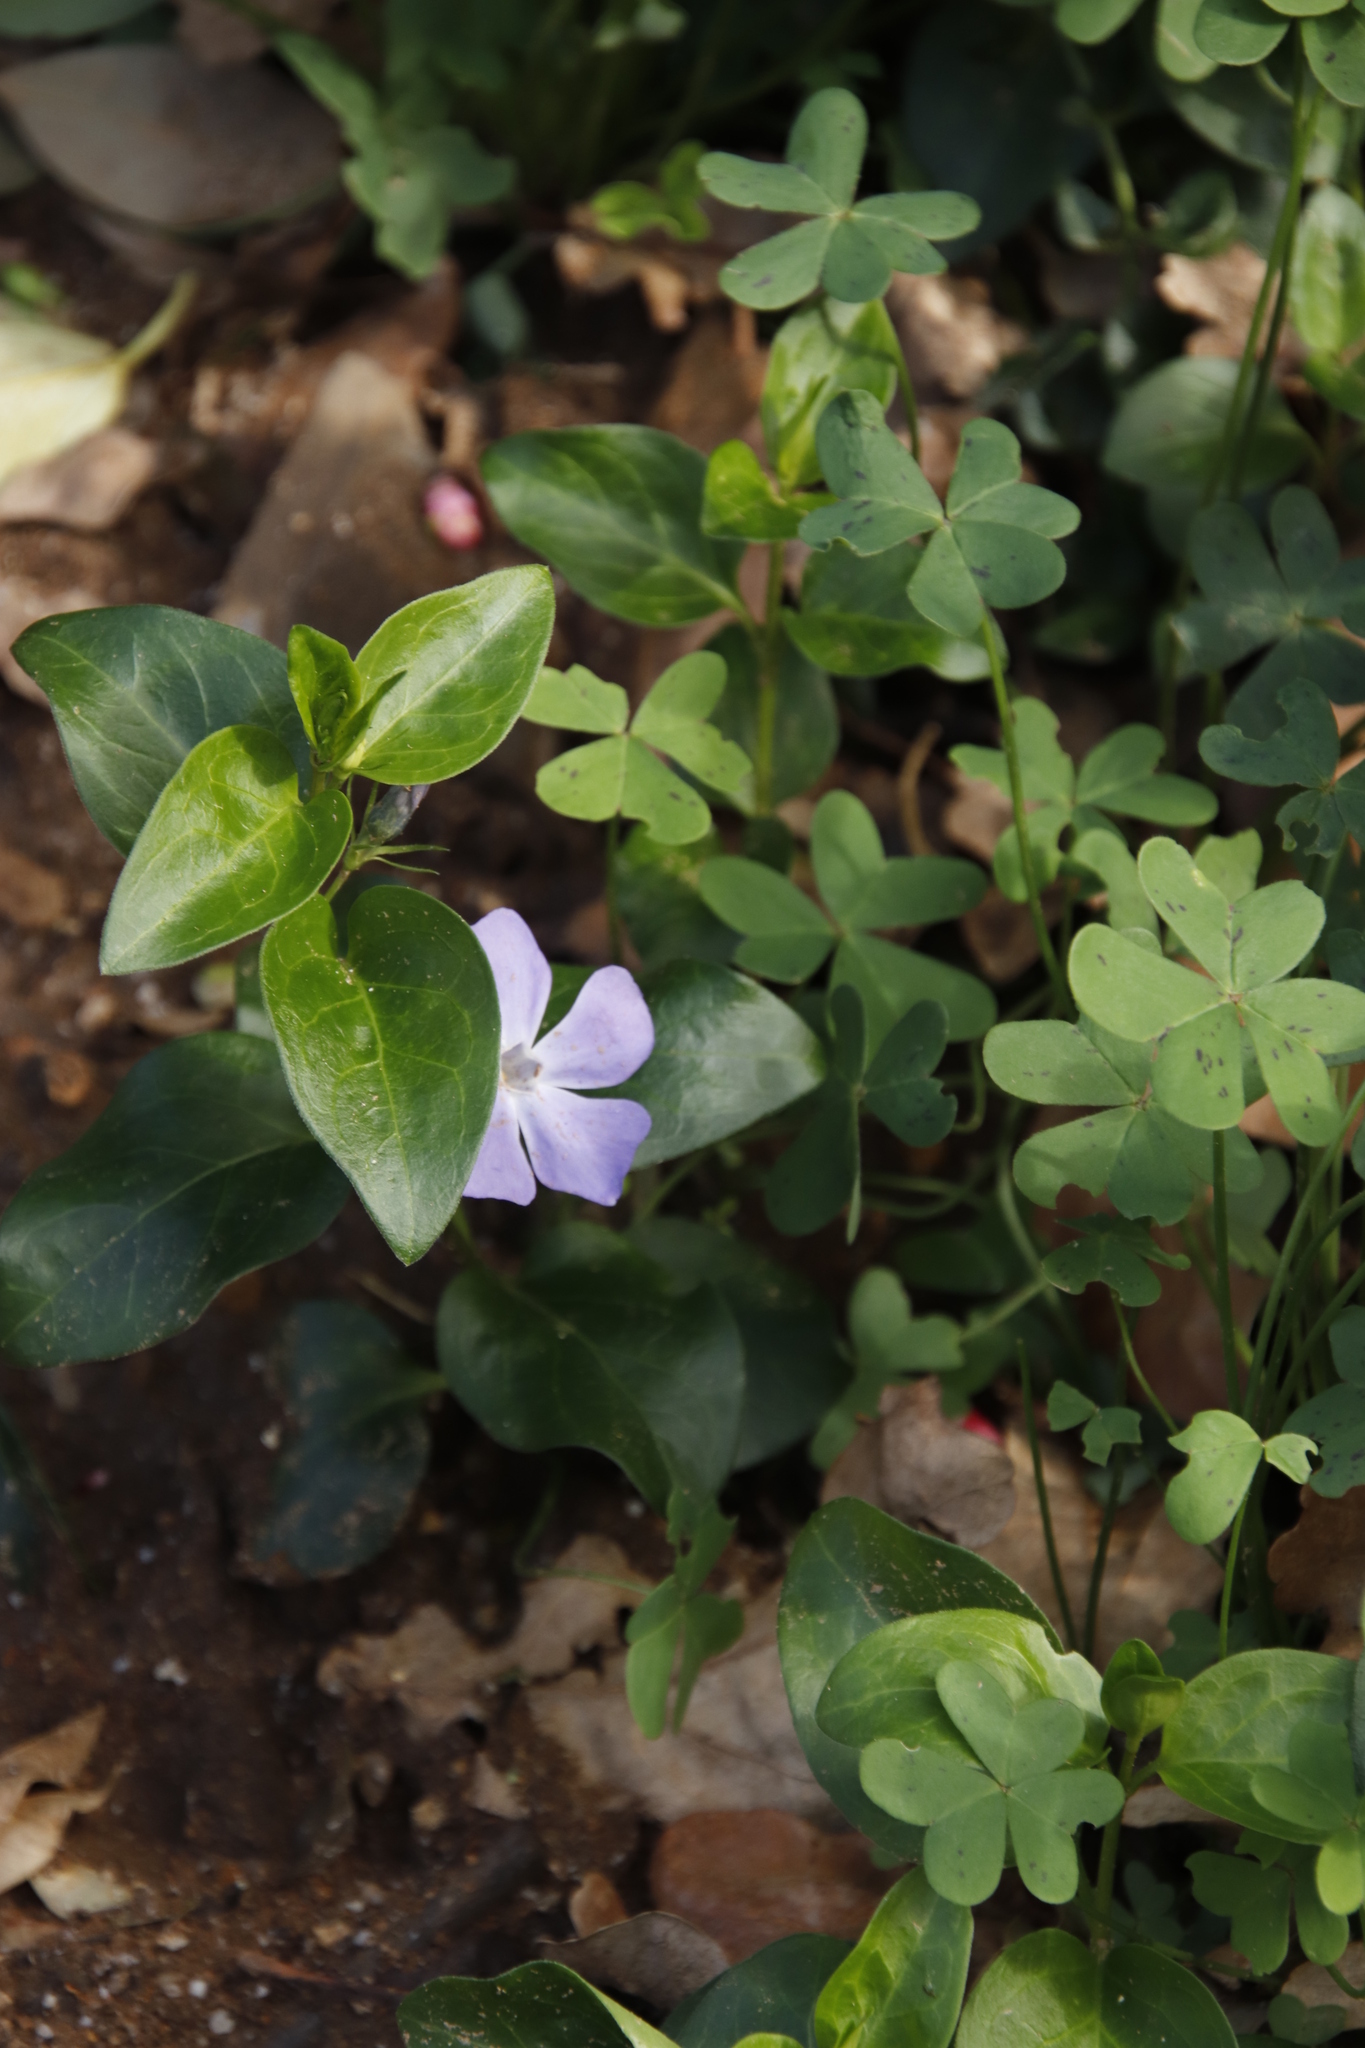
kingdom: Plantae
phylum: Tracheophyta
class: Magnoliopsida
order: Gentianales
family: Apocynaceae
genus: Vinca
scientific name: Vinca major
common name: Greater periwinkle
